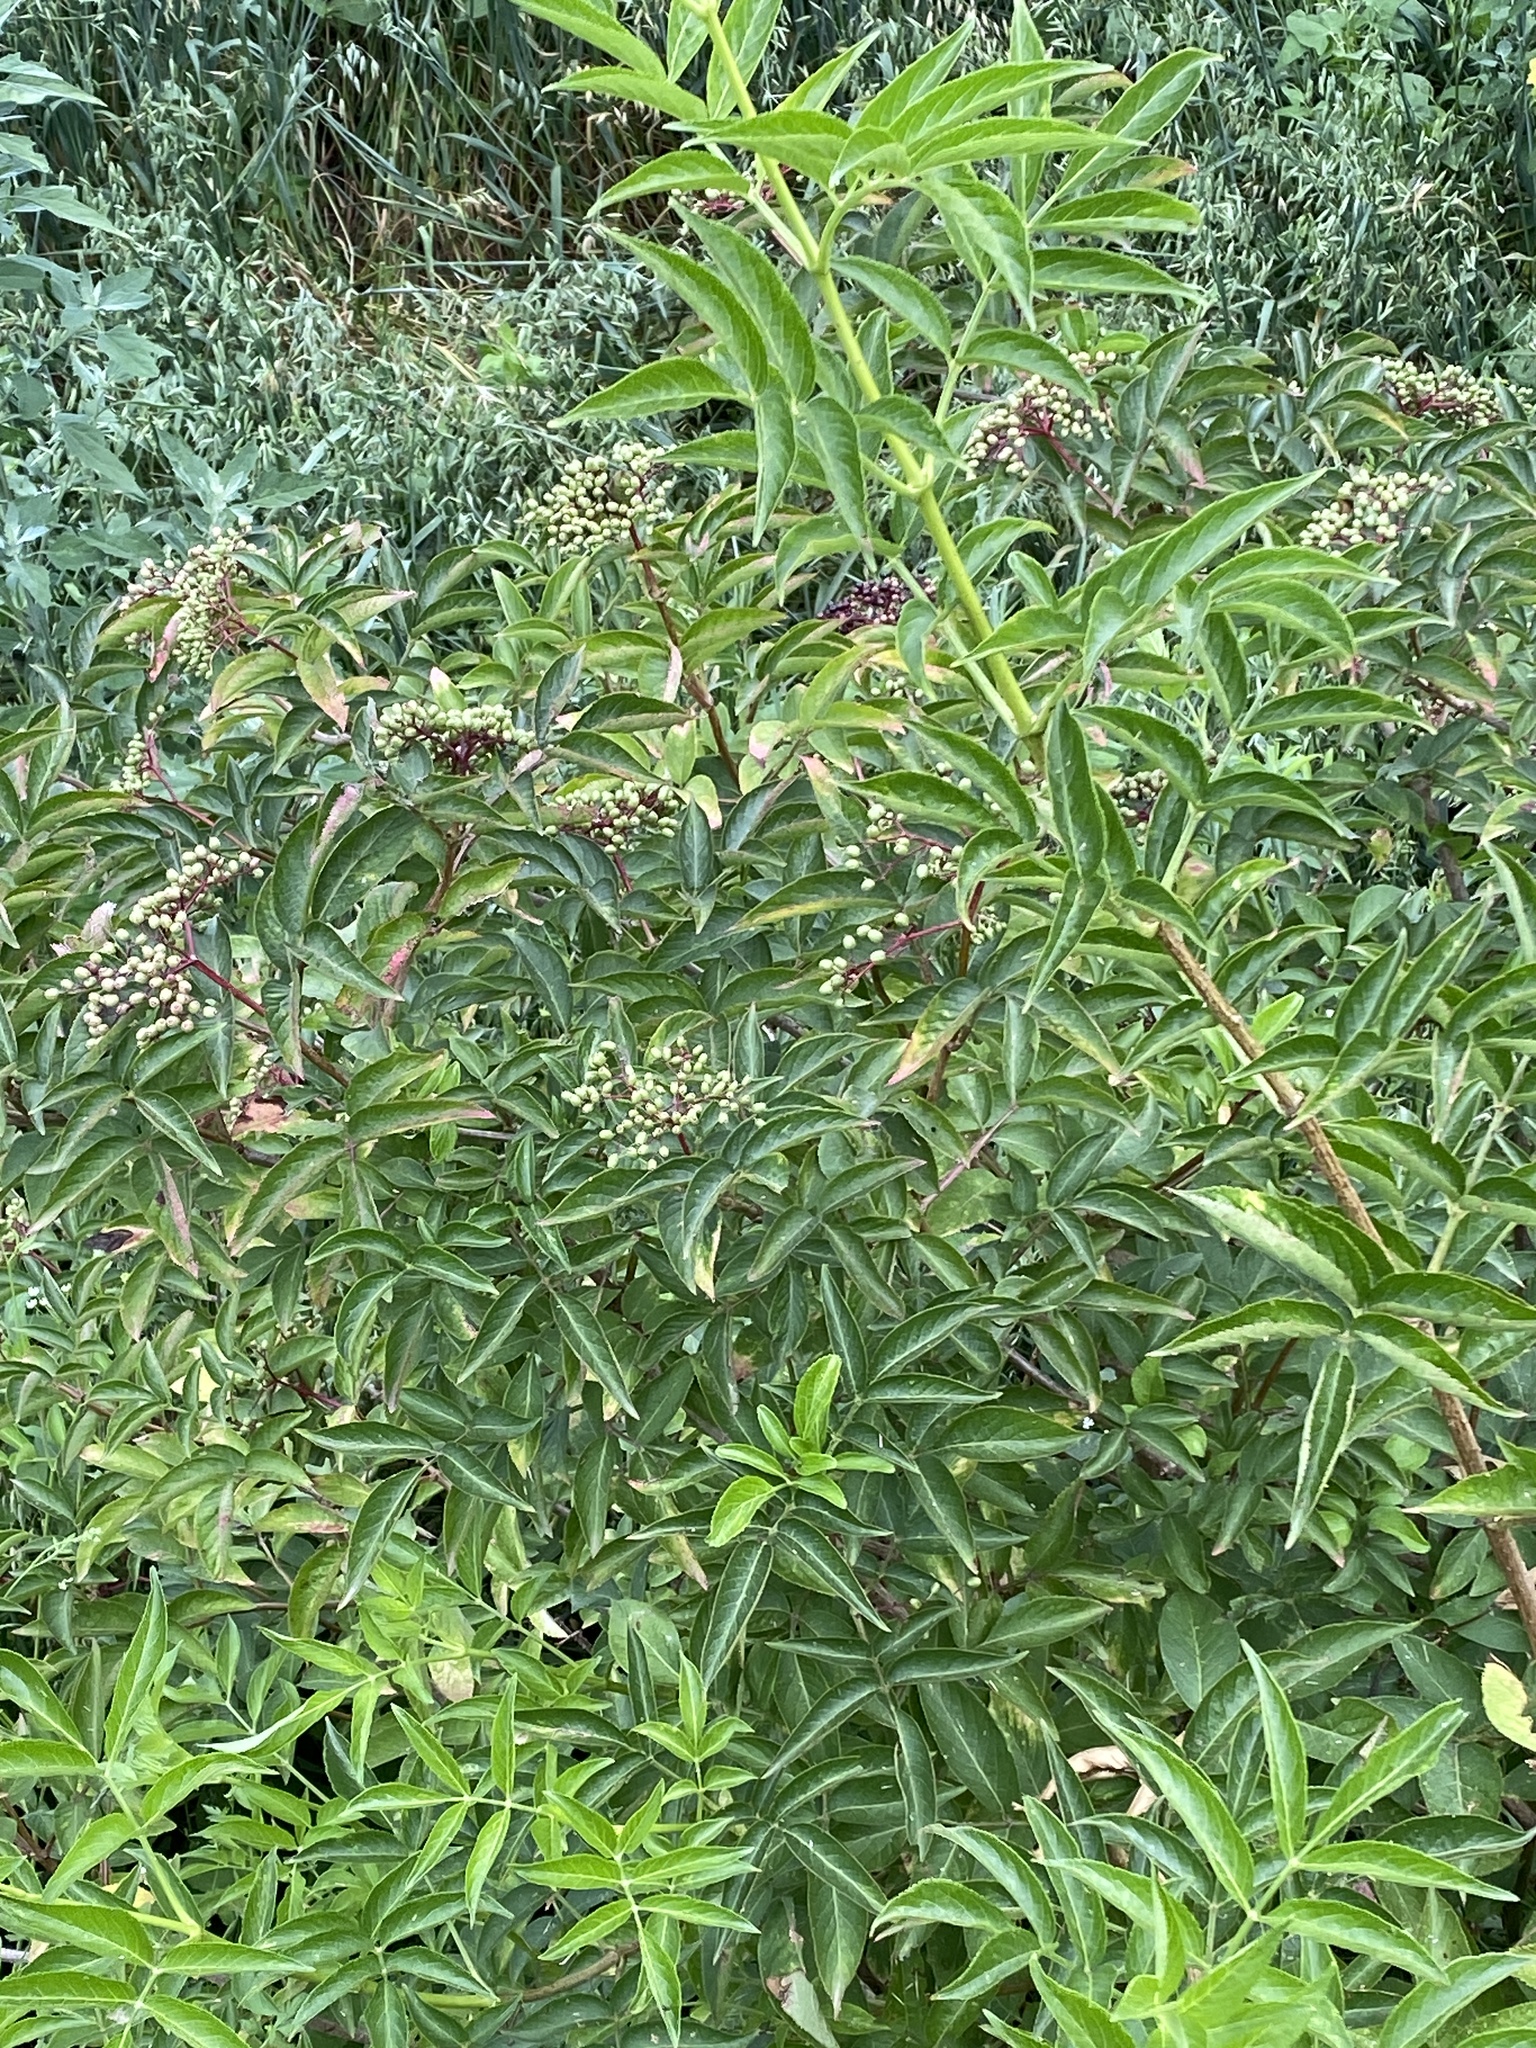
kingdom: Plantae
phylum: Tracheophyta
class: Magnoliopsida
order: Dipsacales
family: Viburnaceae
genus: Sambucus
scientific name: Sambucus nigra
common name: Elder
